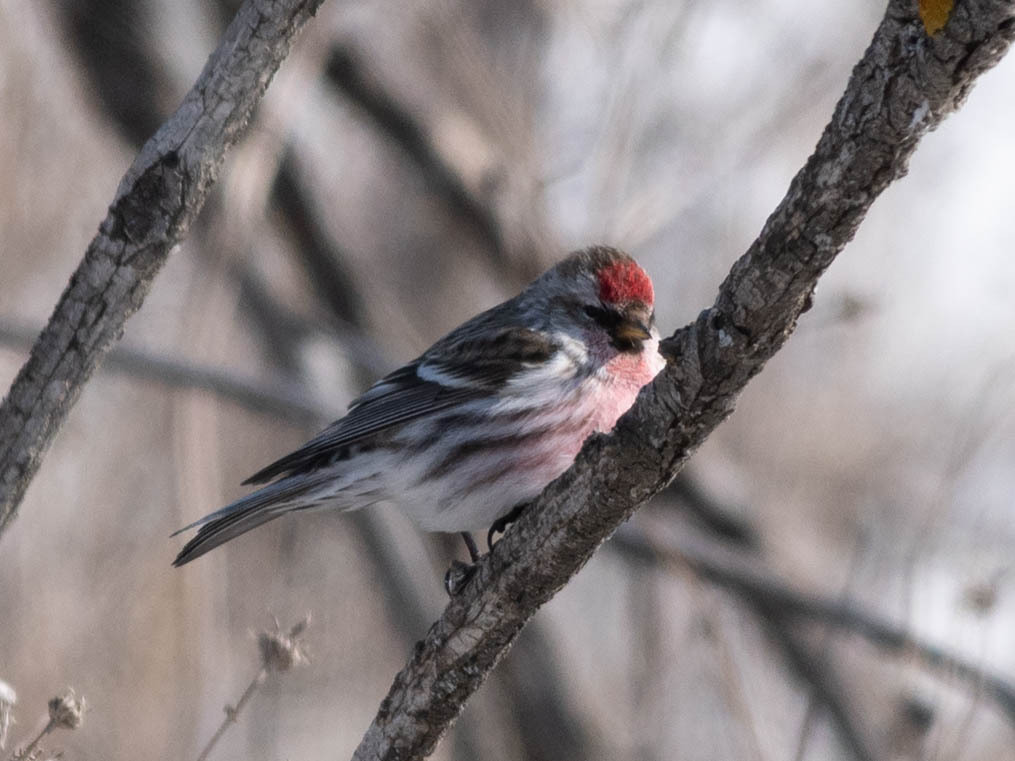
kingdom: Animalia
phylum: Chordata
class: Aves
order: Passeriformes
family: Fringillidae
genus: Acanthis
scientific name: Acanthis flammea
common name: Common redpoll
